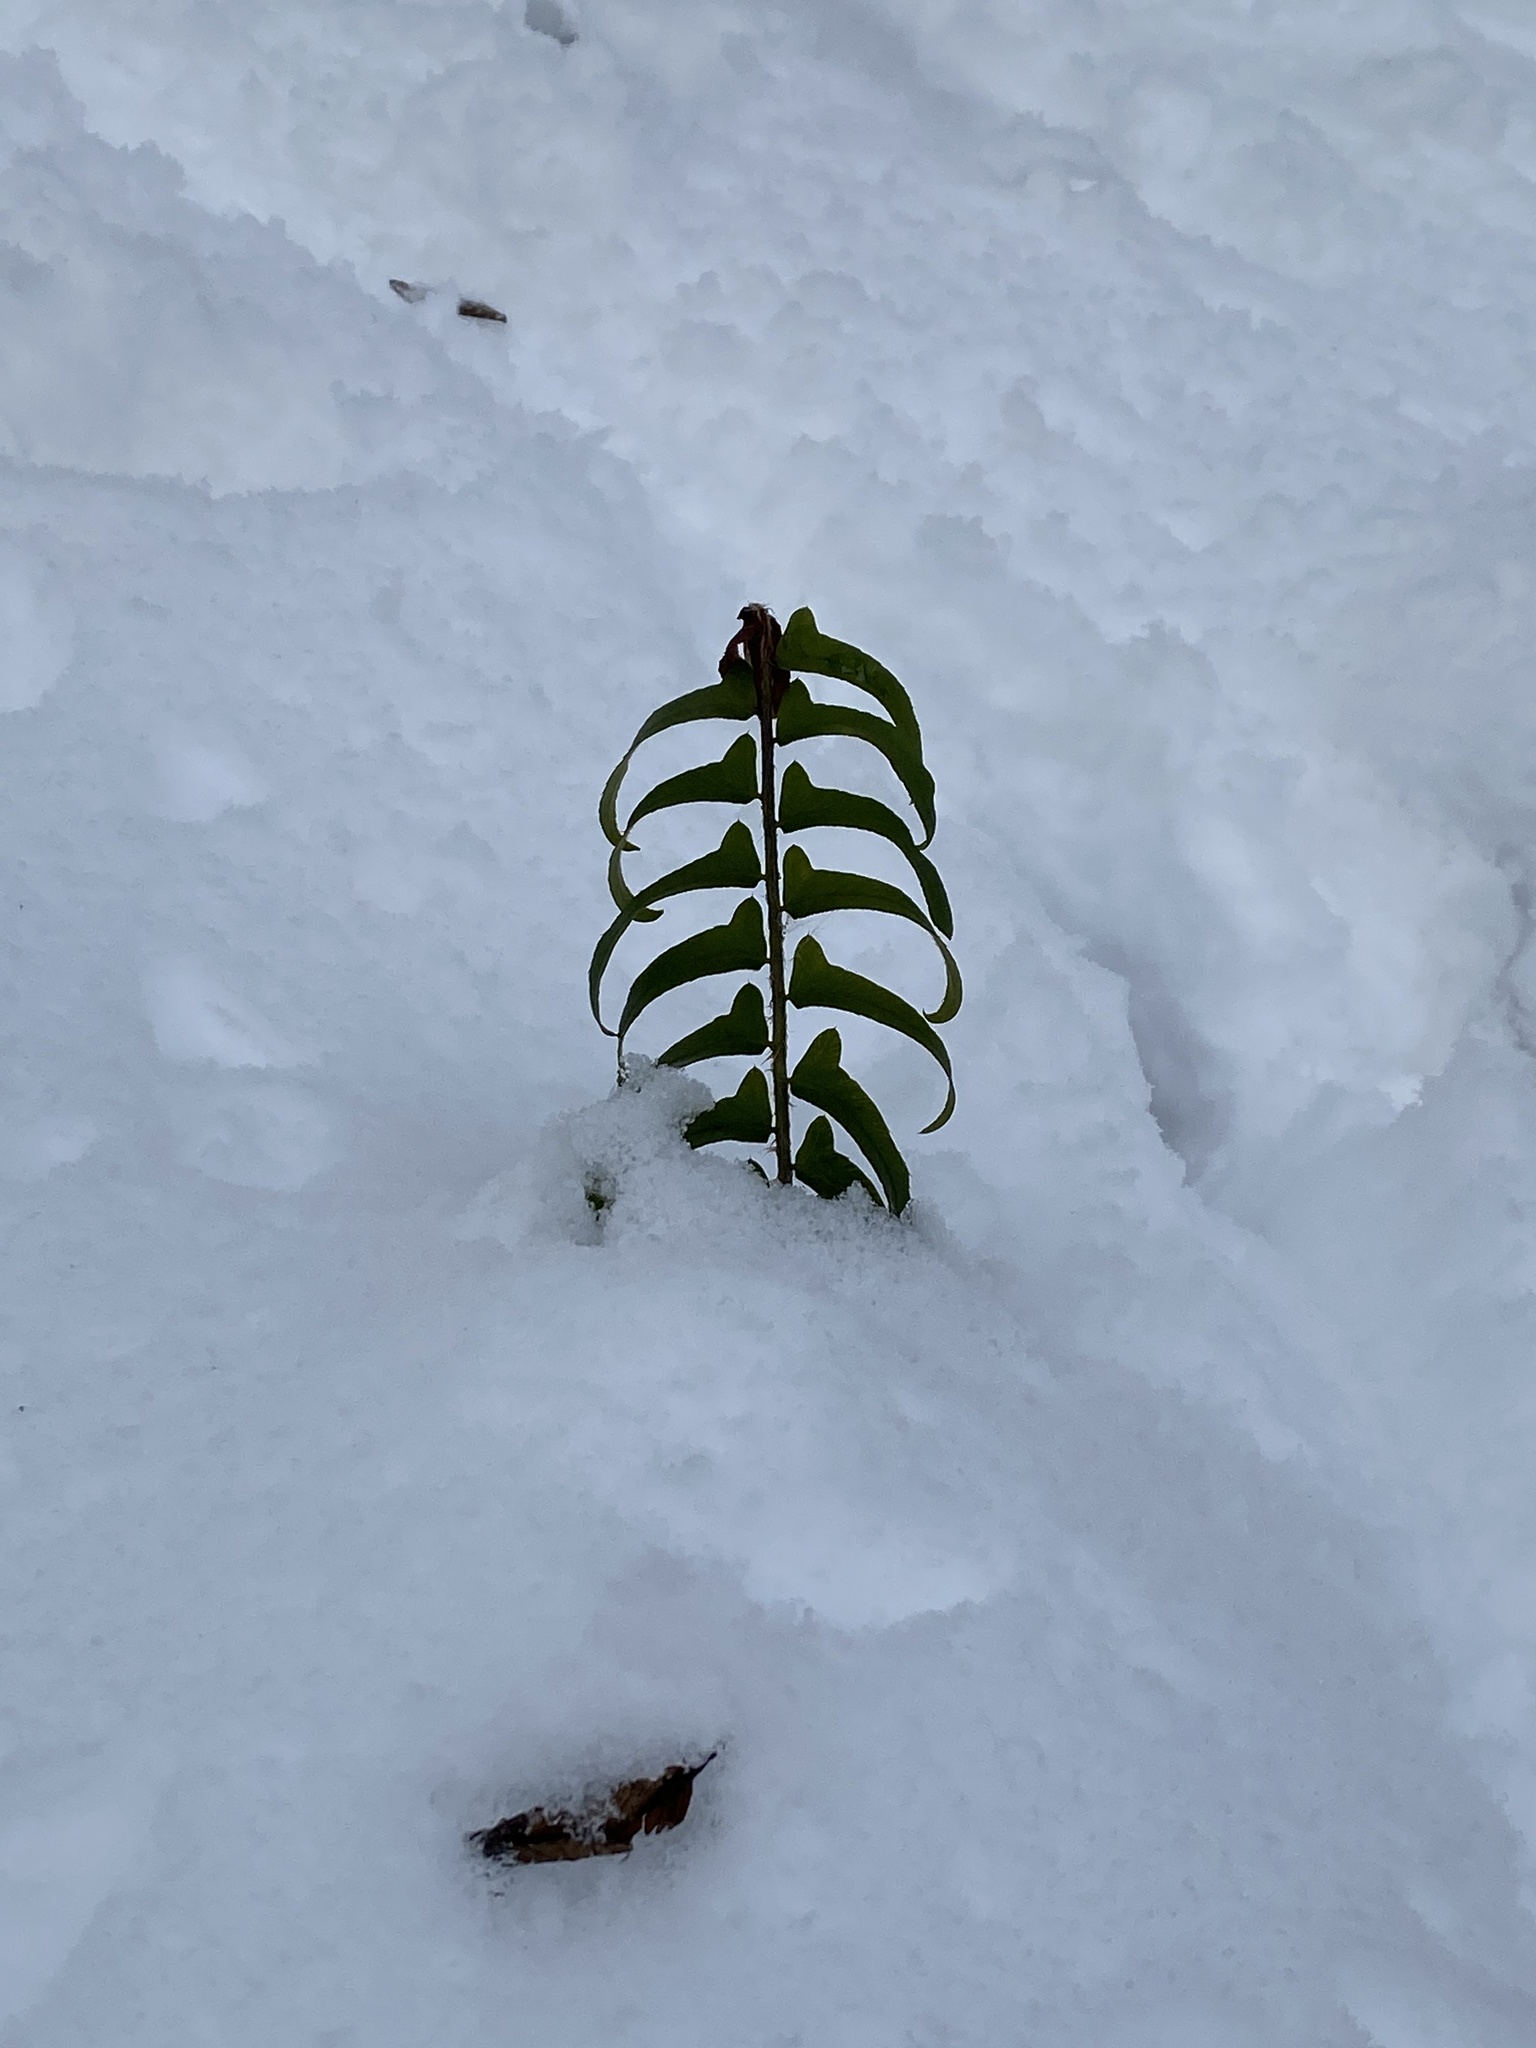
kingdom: Plantae
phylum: Tracheophyta
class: Polypodiopsida
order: Polypodiales
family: Dryopteridaceae
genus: Polystichum
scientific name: Polystichum acrostichoides
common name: Christmas fern
